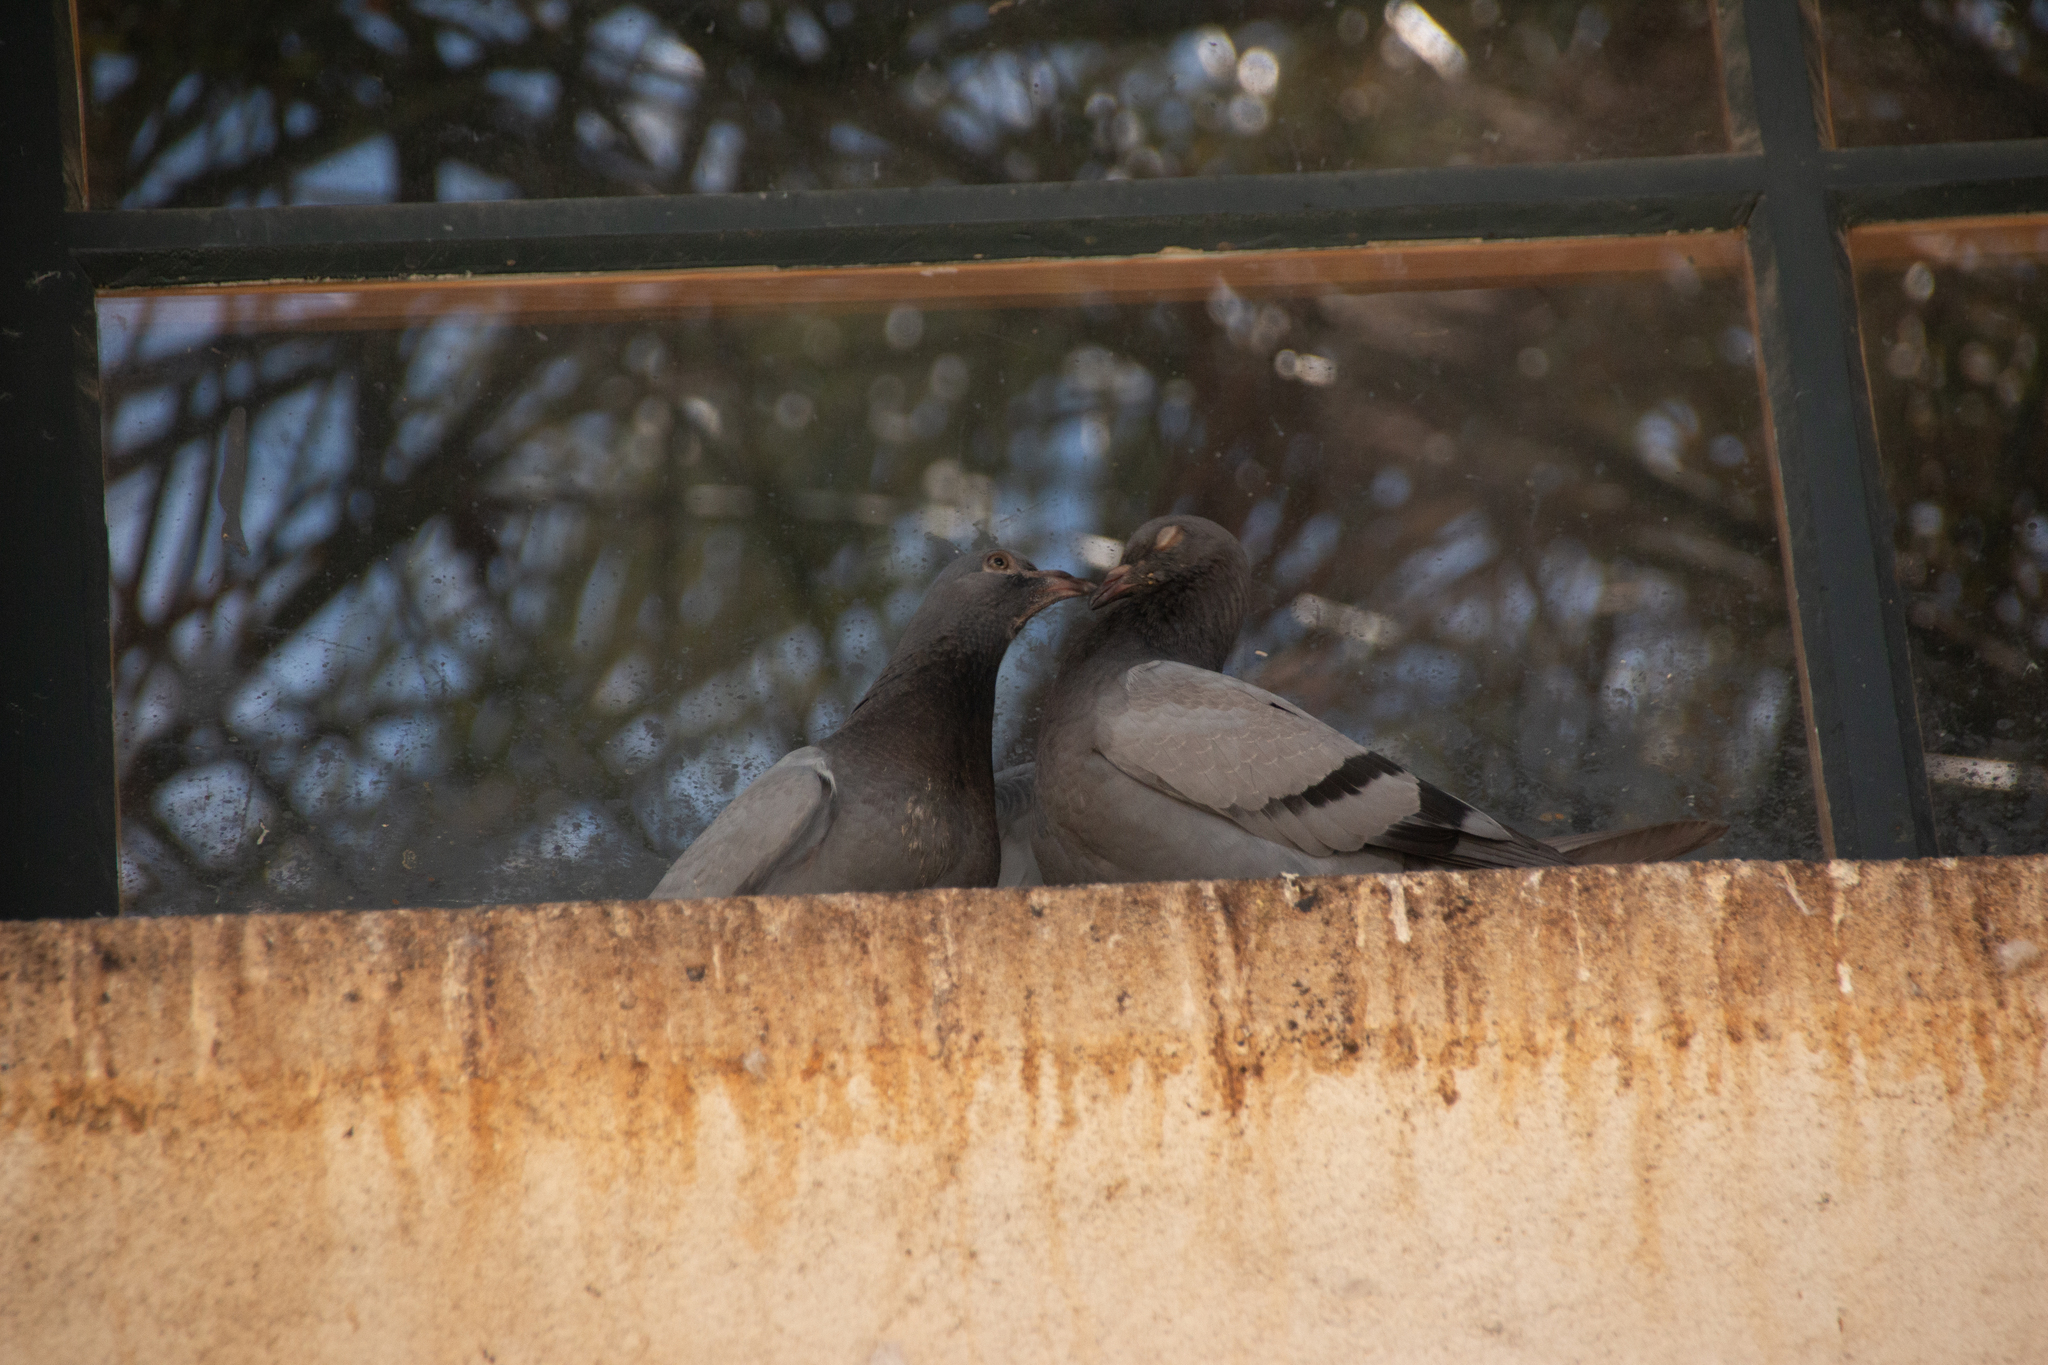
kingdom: Animalia
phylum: Chordata
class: Aves
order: Columbiformes
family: Columbidae
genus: Columba
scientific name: Columba livia
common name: Rock pigeon
